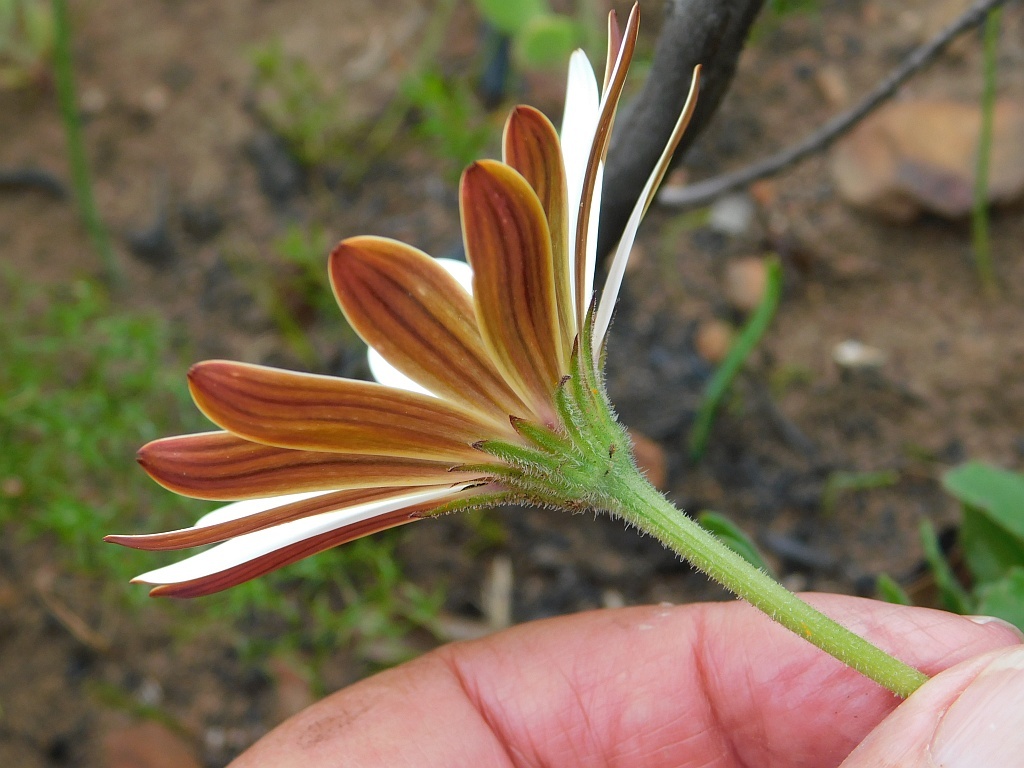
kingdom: Plantae
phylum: Tracheophyta
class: Magnoliopsida
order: Asterales
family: Asteraceae
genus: Dimorphotheca
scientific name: Dimorphotheca nudicaulis
